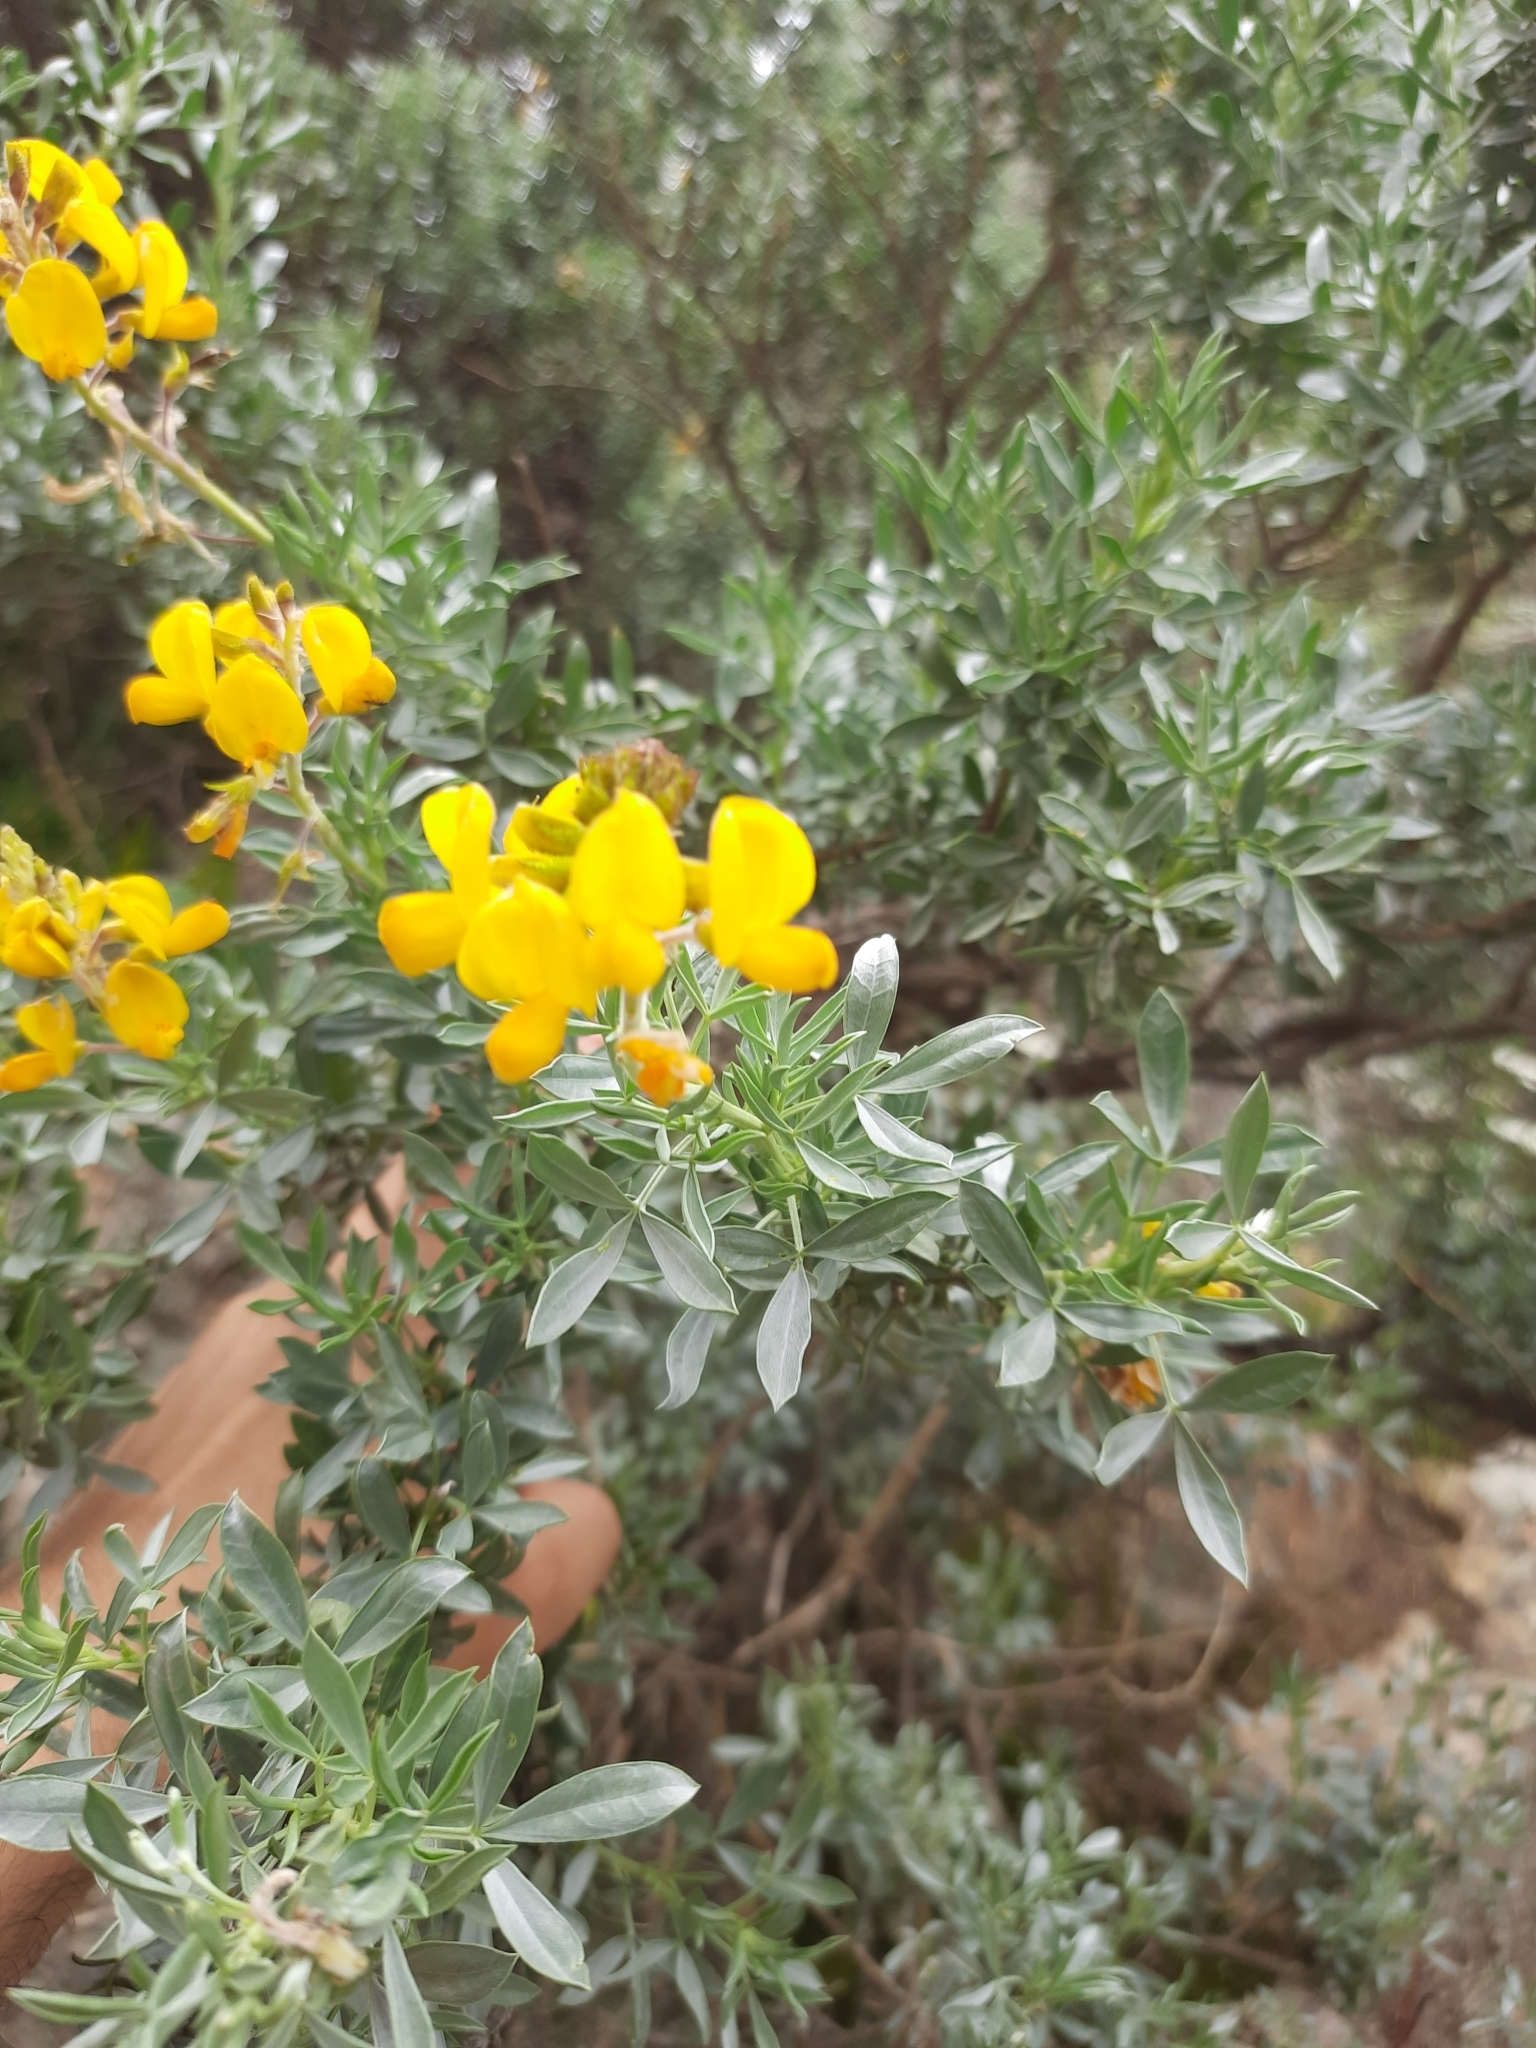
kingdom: Plantae
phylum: Tracheophyta
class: Magnoliopsida
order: Fabales
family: Fabaceae
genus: Adenocarpus
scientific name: Adenocarpus argyrophyllus
